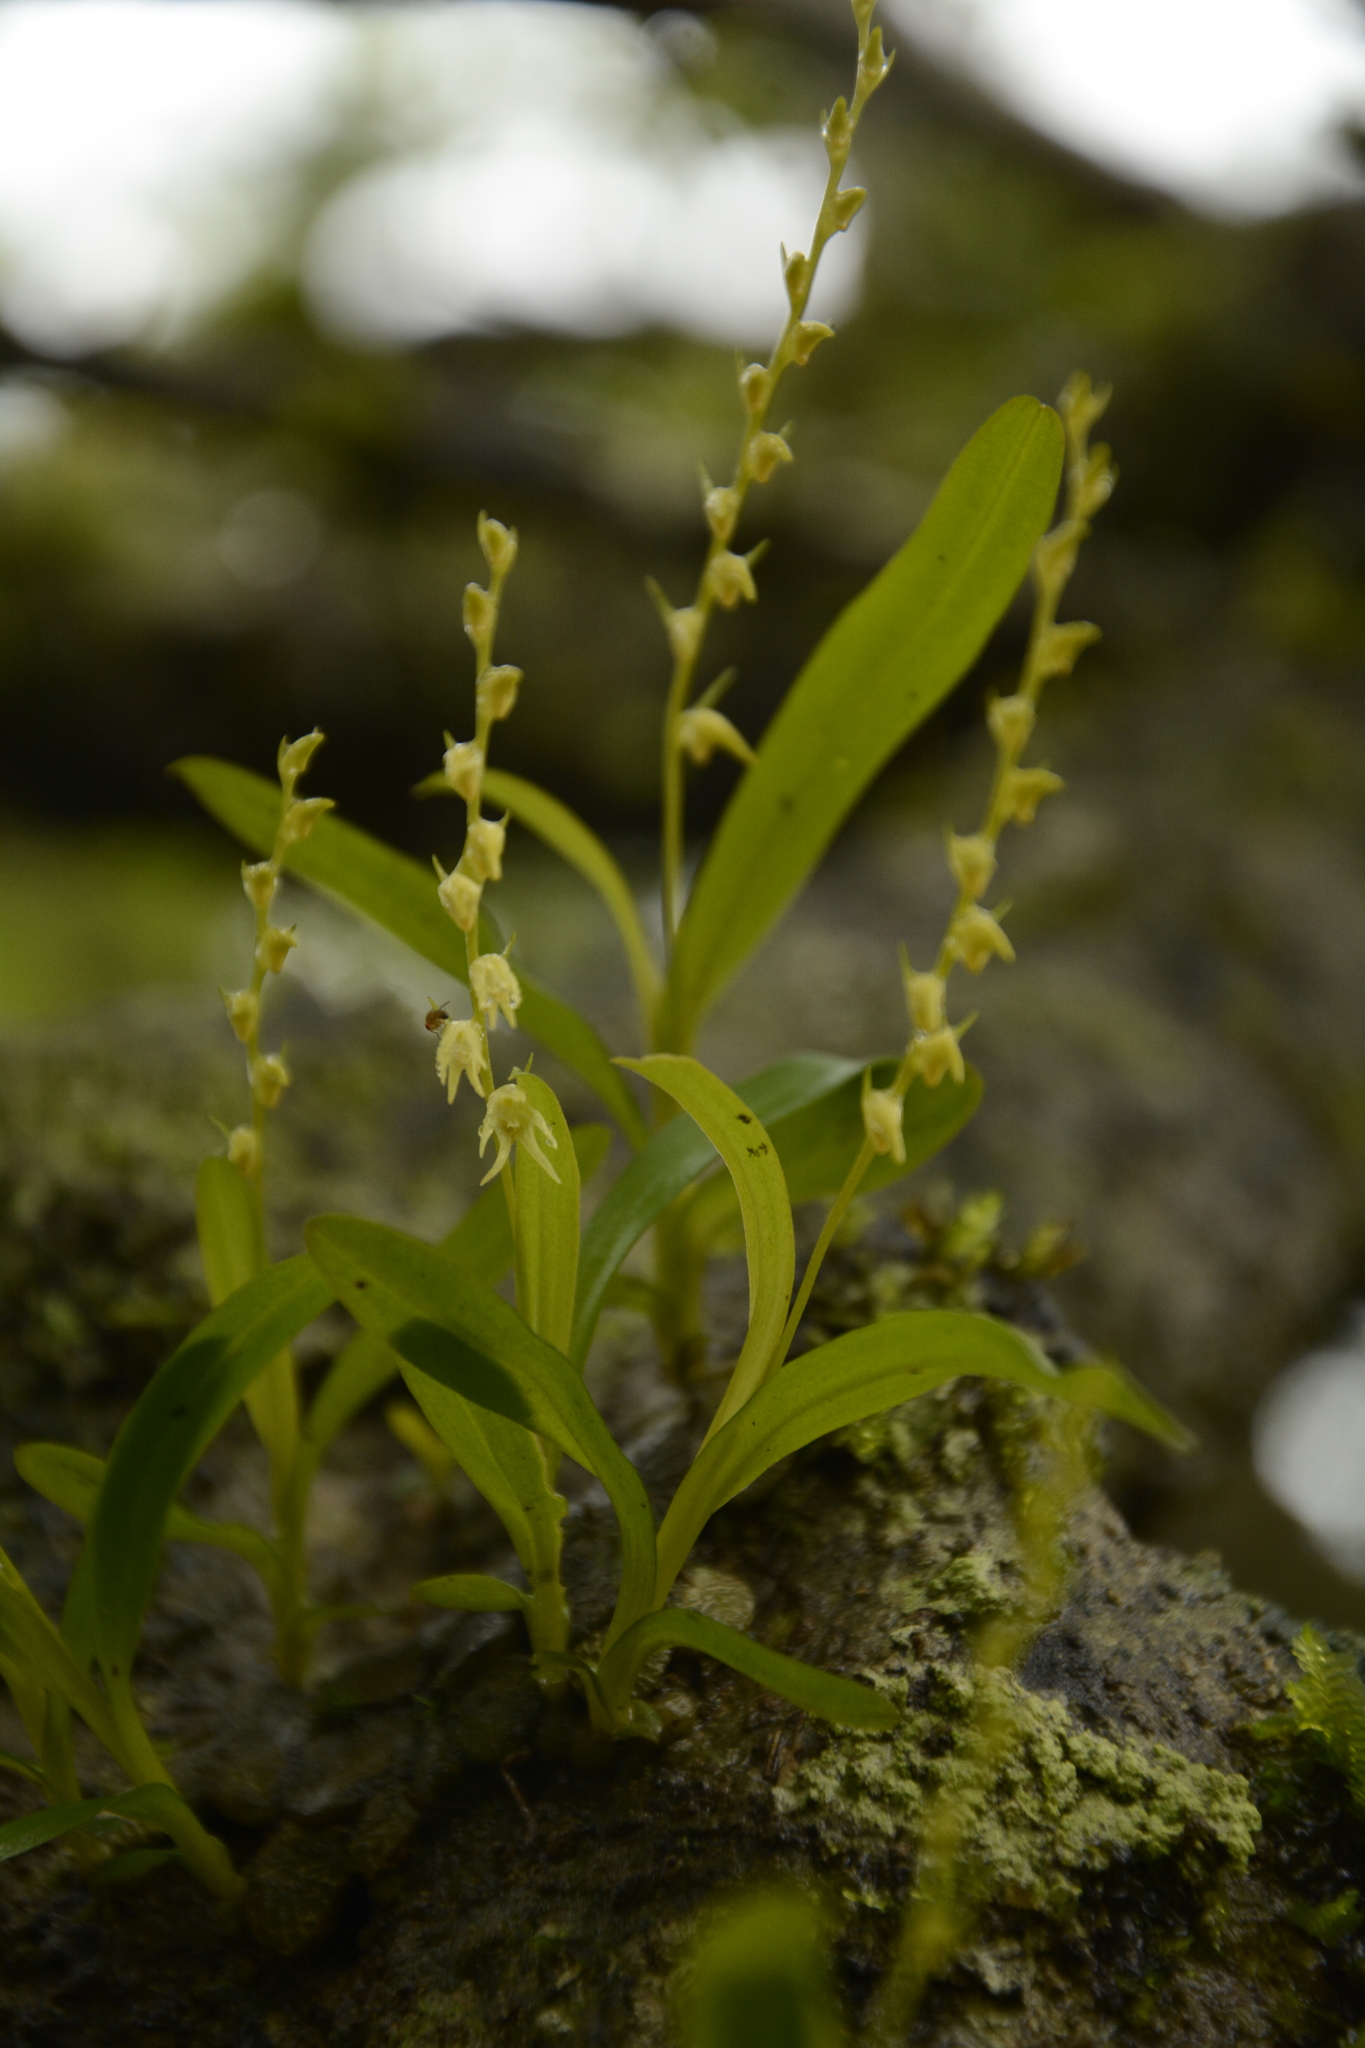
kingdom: Plantae
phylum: Tracheophyta
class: Liliopsida
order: Asparagales
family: Orchidaceae
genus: Porpax
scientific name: Porpax filiformis
